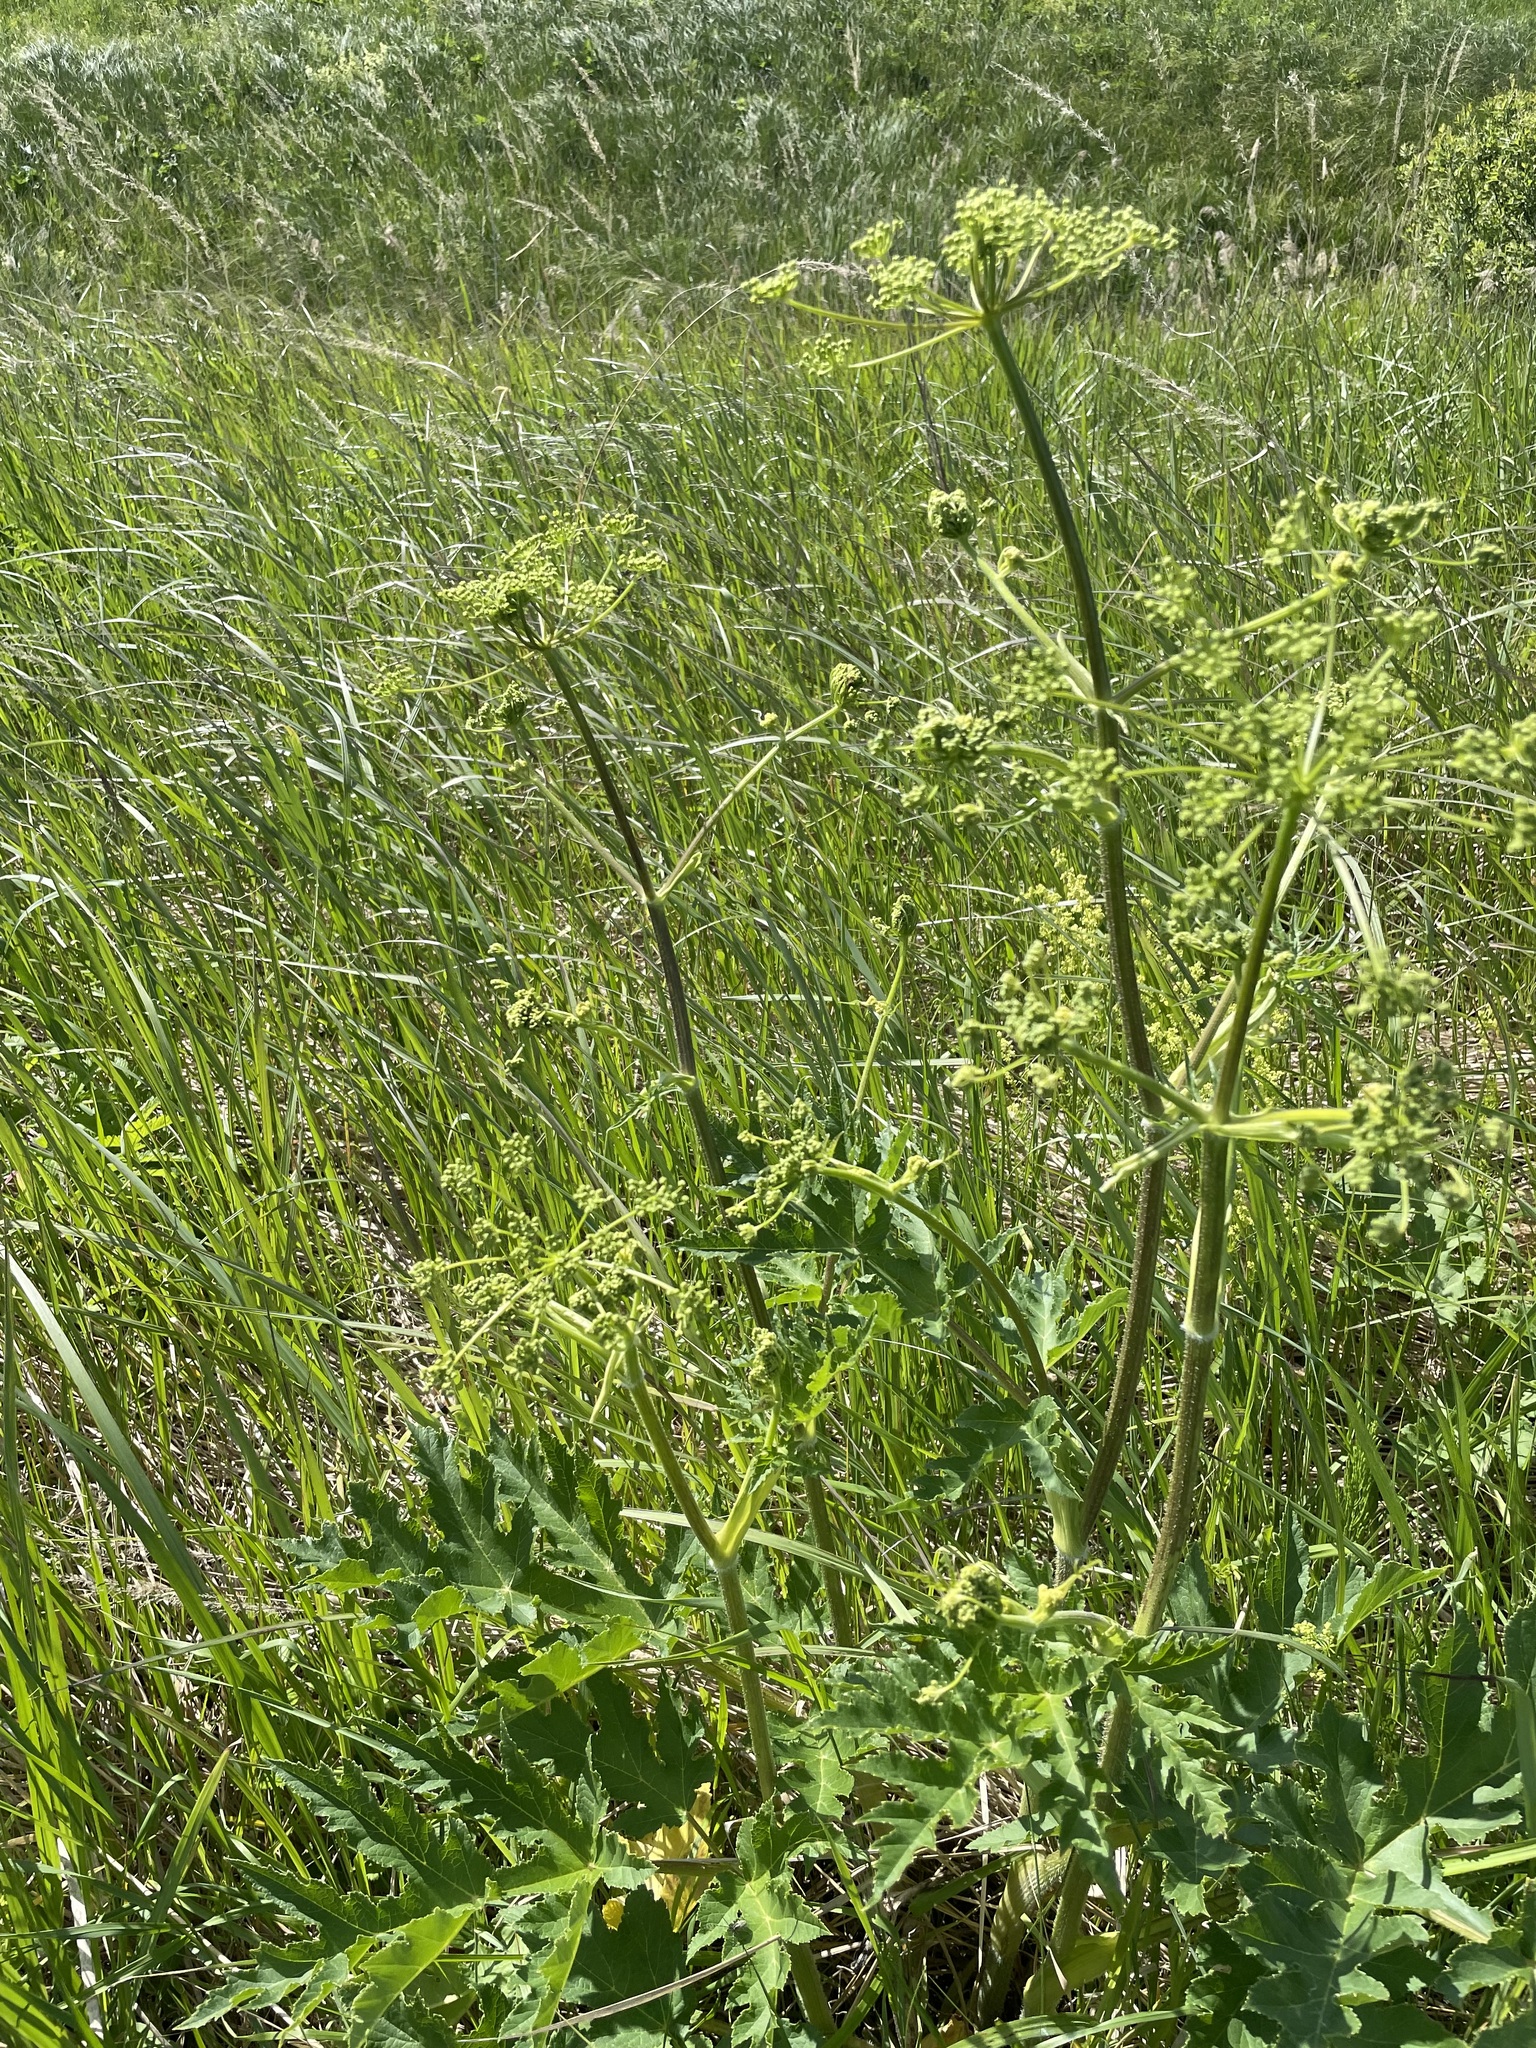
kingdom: Plantae
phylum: Tracheophyta
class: Magnoliopsida
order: Apiales
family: Apiaceae
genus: Heracleum
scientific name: Heracleum sphondylium
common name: Hogweed
